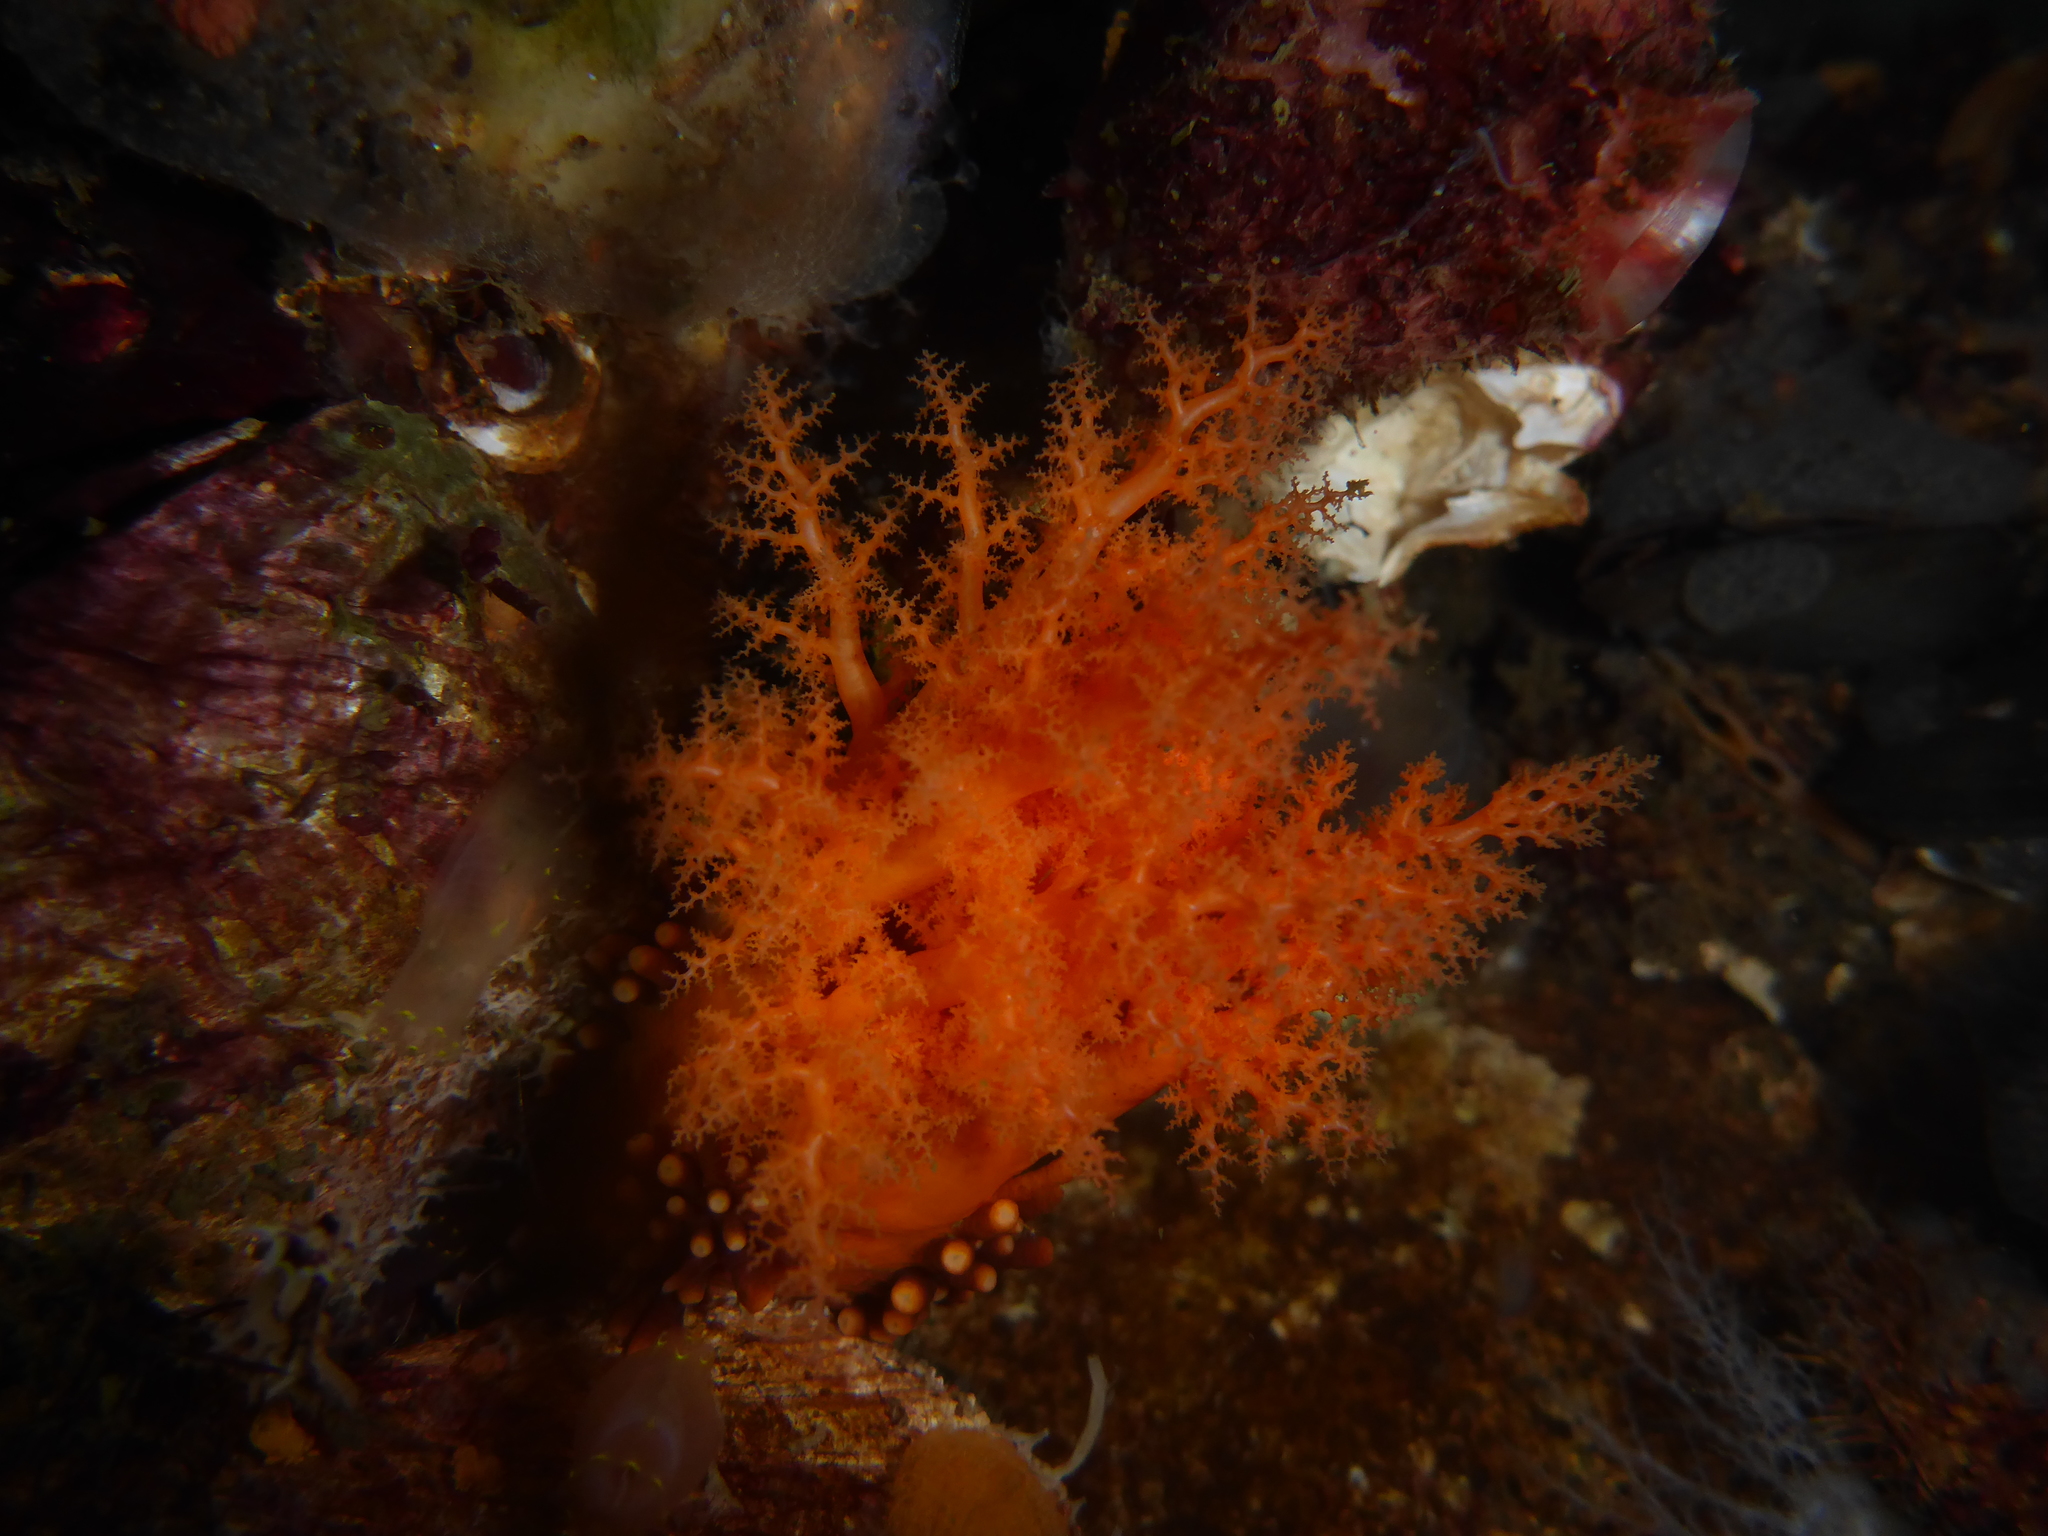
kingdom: Animalia
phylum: Echinodermata
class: Holothuroidea
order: Dendrochirotida
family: Cucumariidae
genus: Cucumaria
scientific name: Cucumaria miniata
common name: Orange sea cucumber
